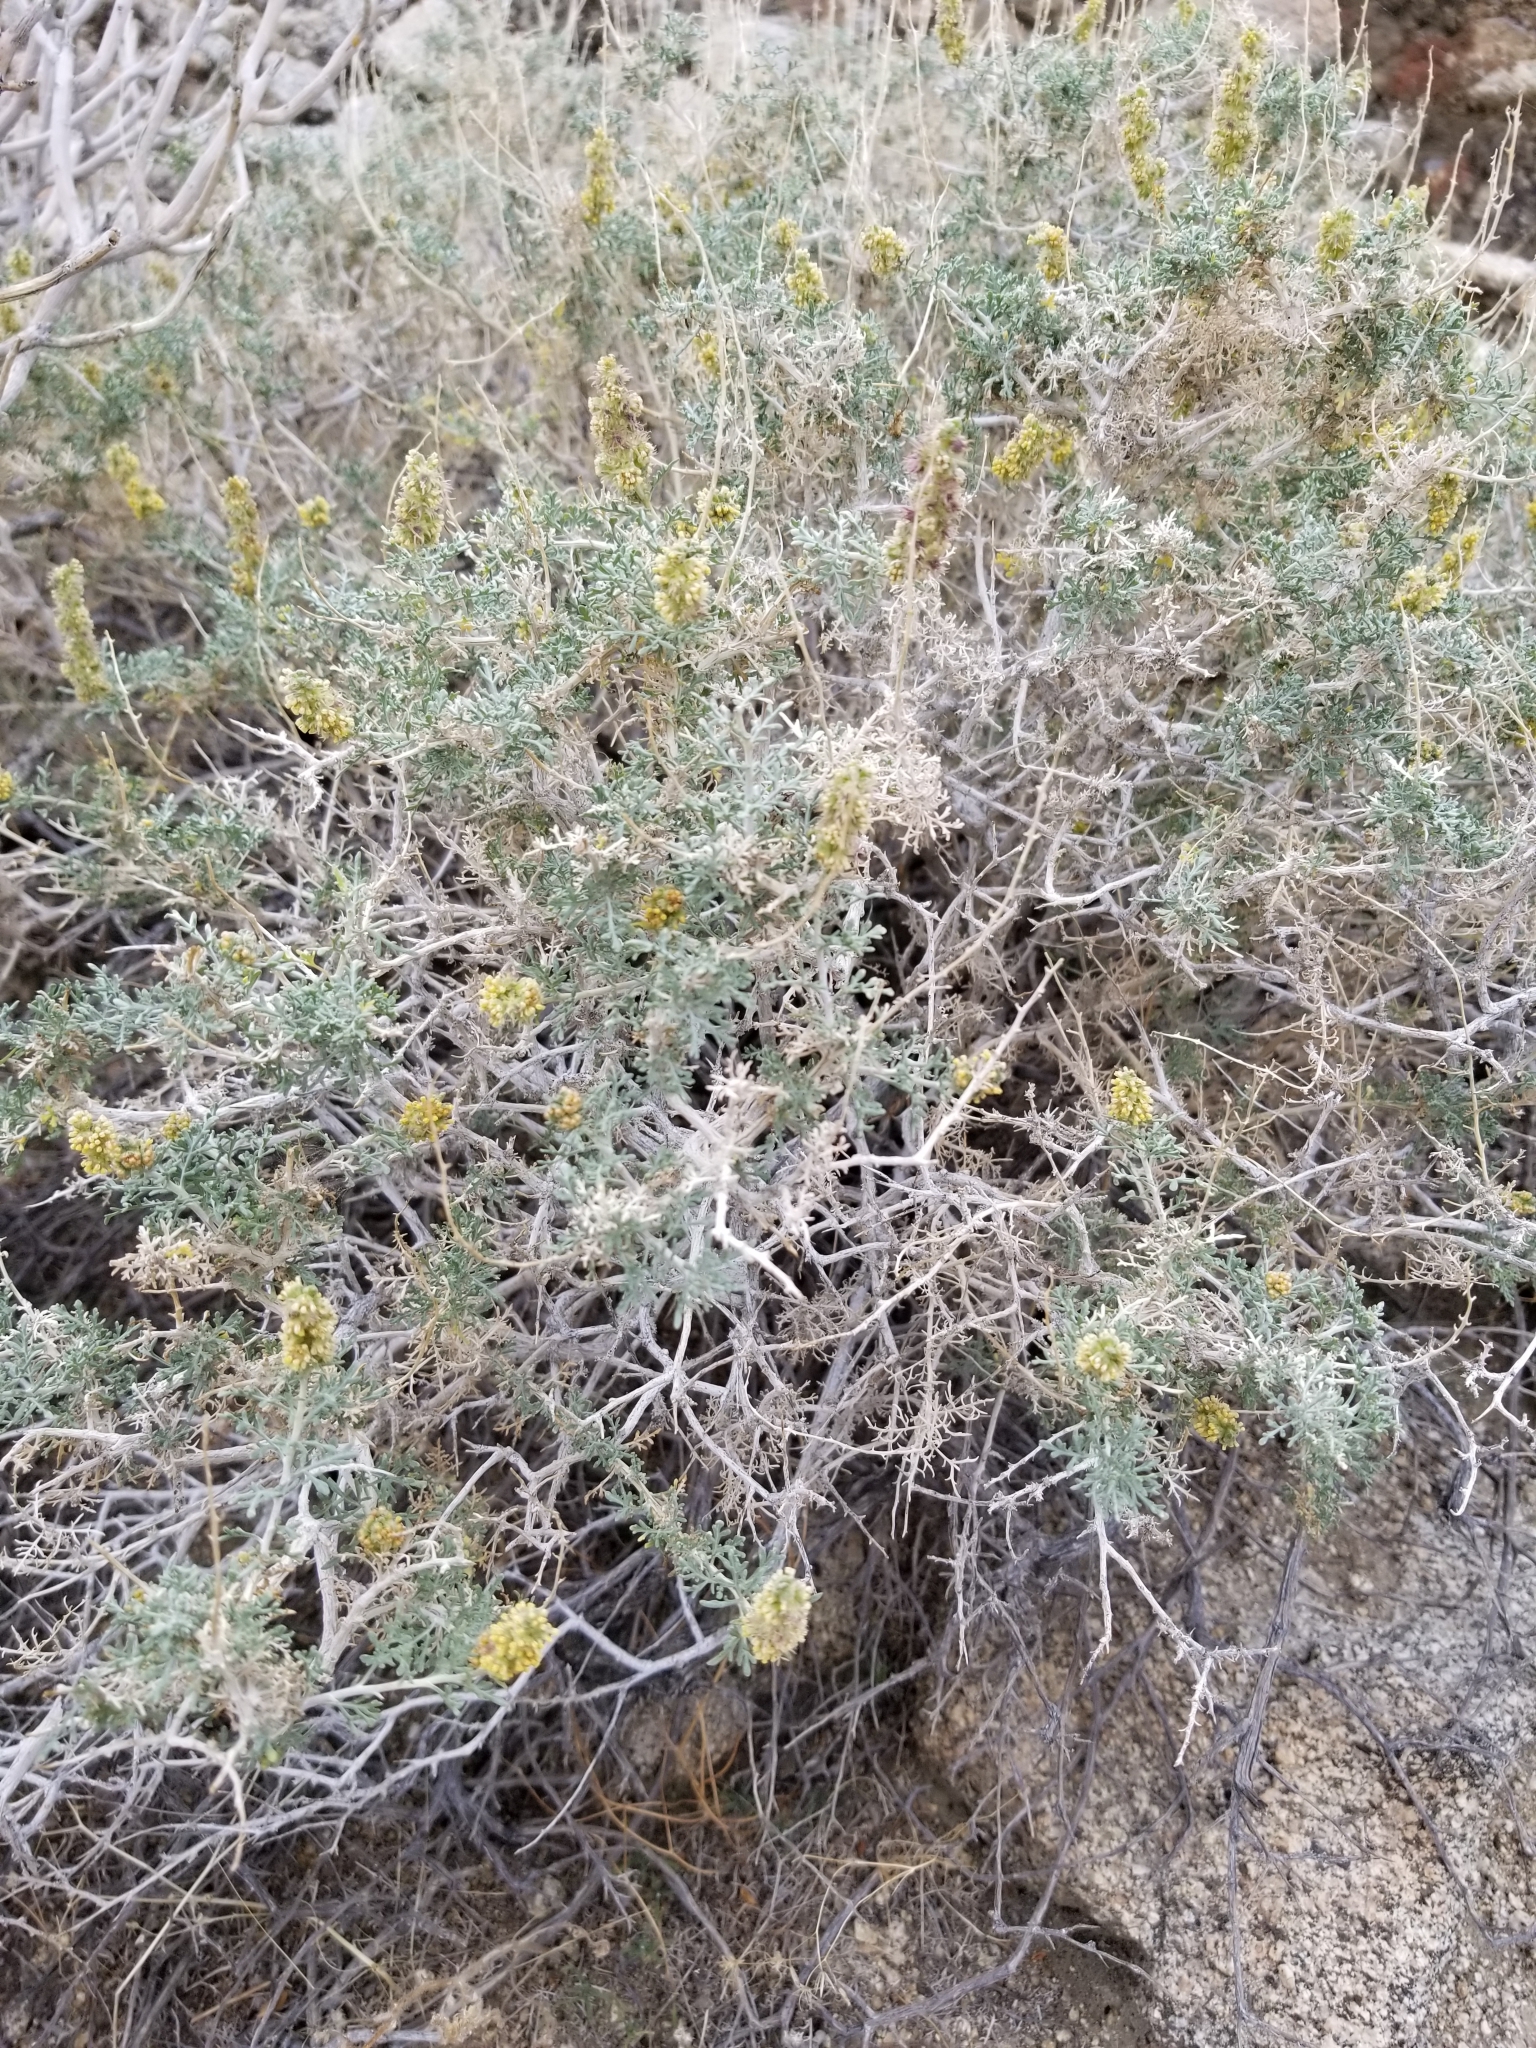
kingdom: Plantae
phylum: Tracheophyta
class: Magnoliopsida
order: Asterales
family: Asteraceae
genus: Ambrosia
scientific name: Ambrosia dumosa
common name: Bur-sage
